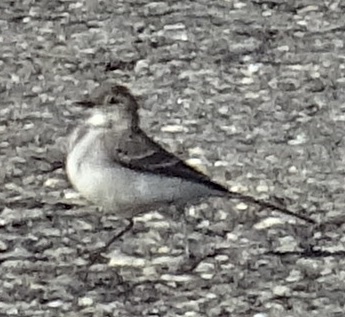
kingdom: Animalia
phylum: Chordata
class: Aves
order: Passeriformes
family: Motacillidae
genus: Motacilla
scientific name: Motacilla alba
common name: White wagtail
